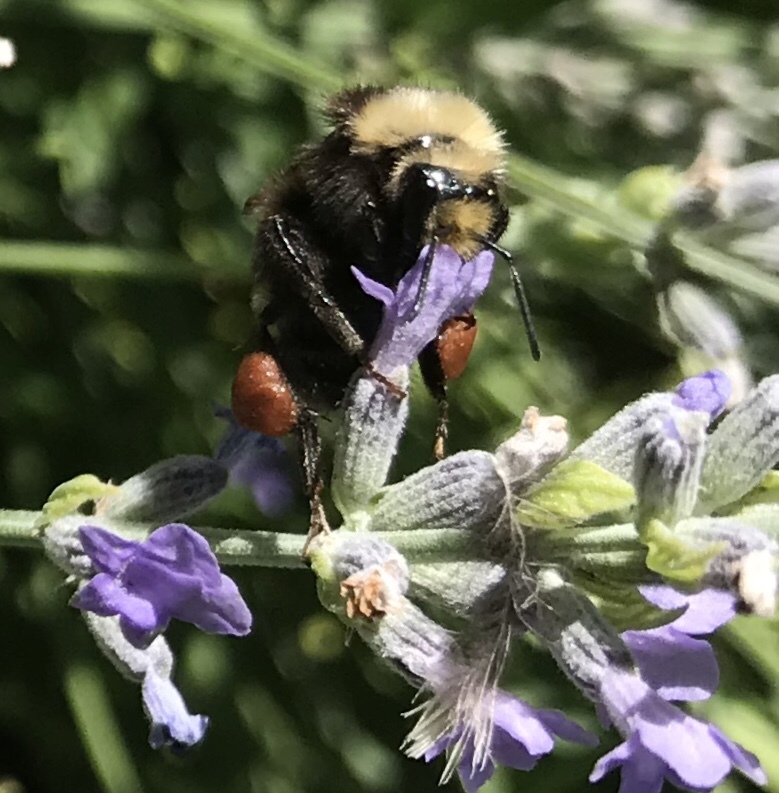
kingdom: Animalia
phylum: Arthropoda
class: Insecta
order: Hymenoptera
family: Apidae
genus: Bombus
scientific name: Bombus vandykei
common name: Van dyke bumble bee
